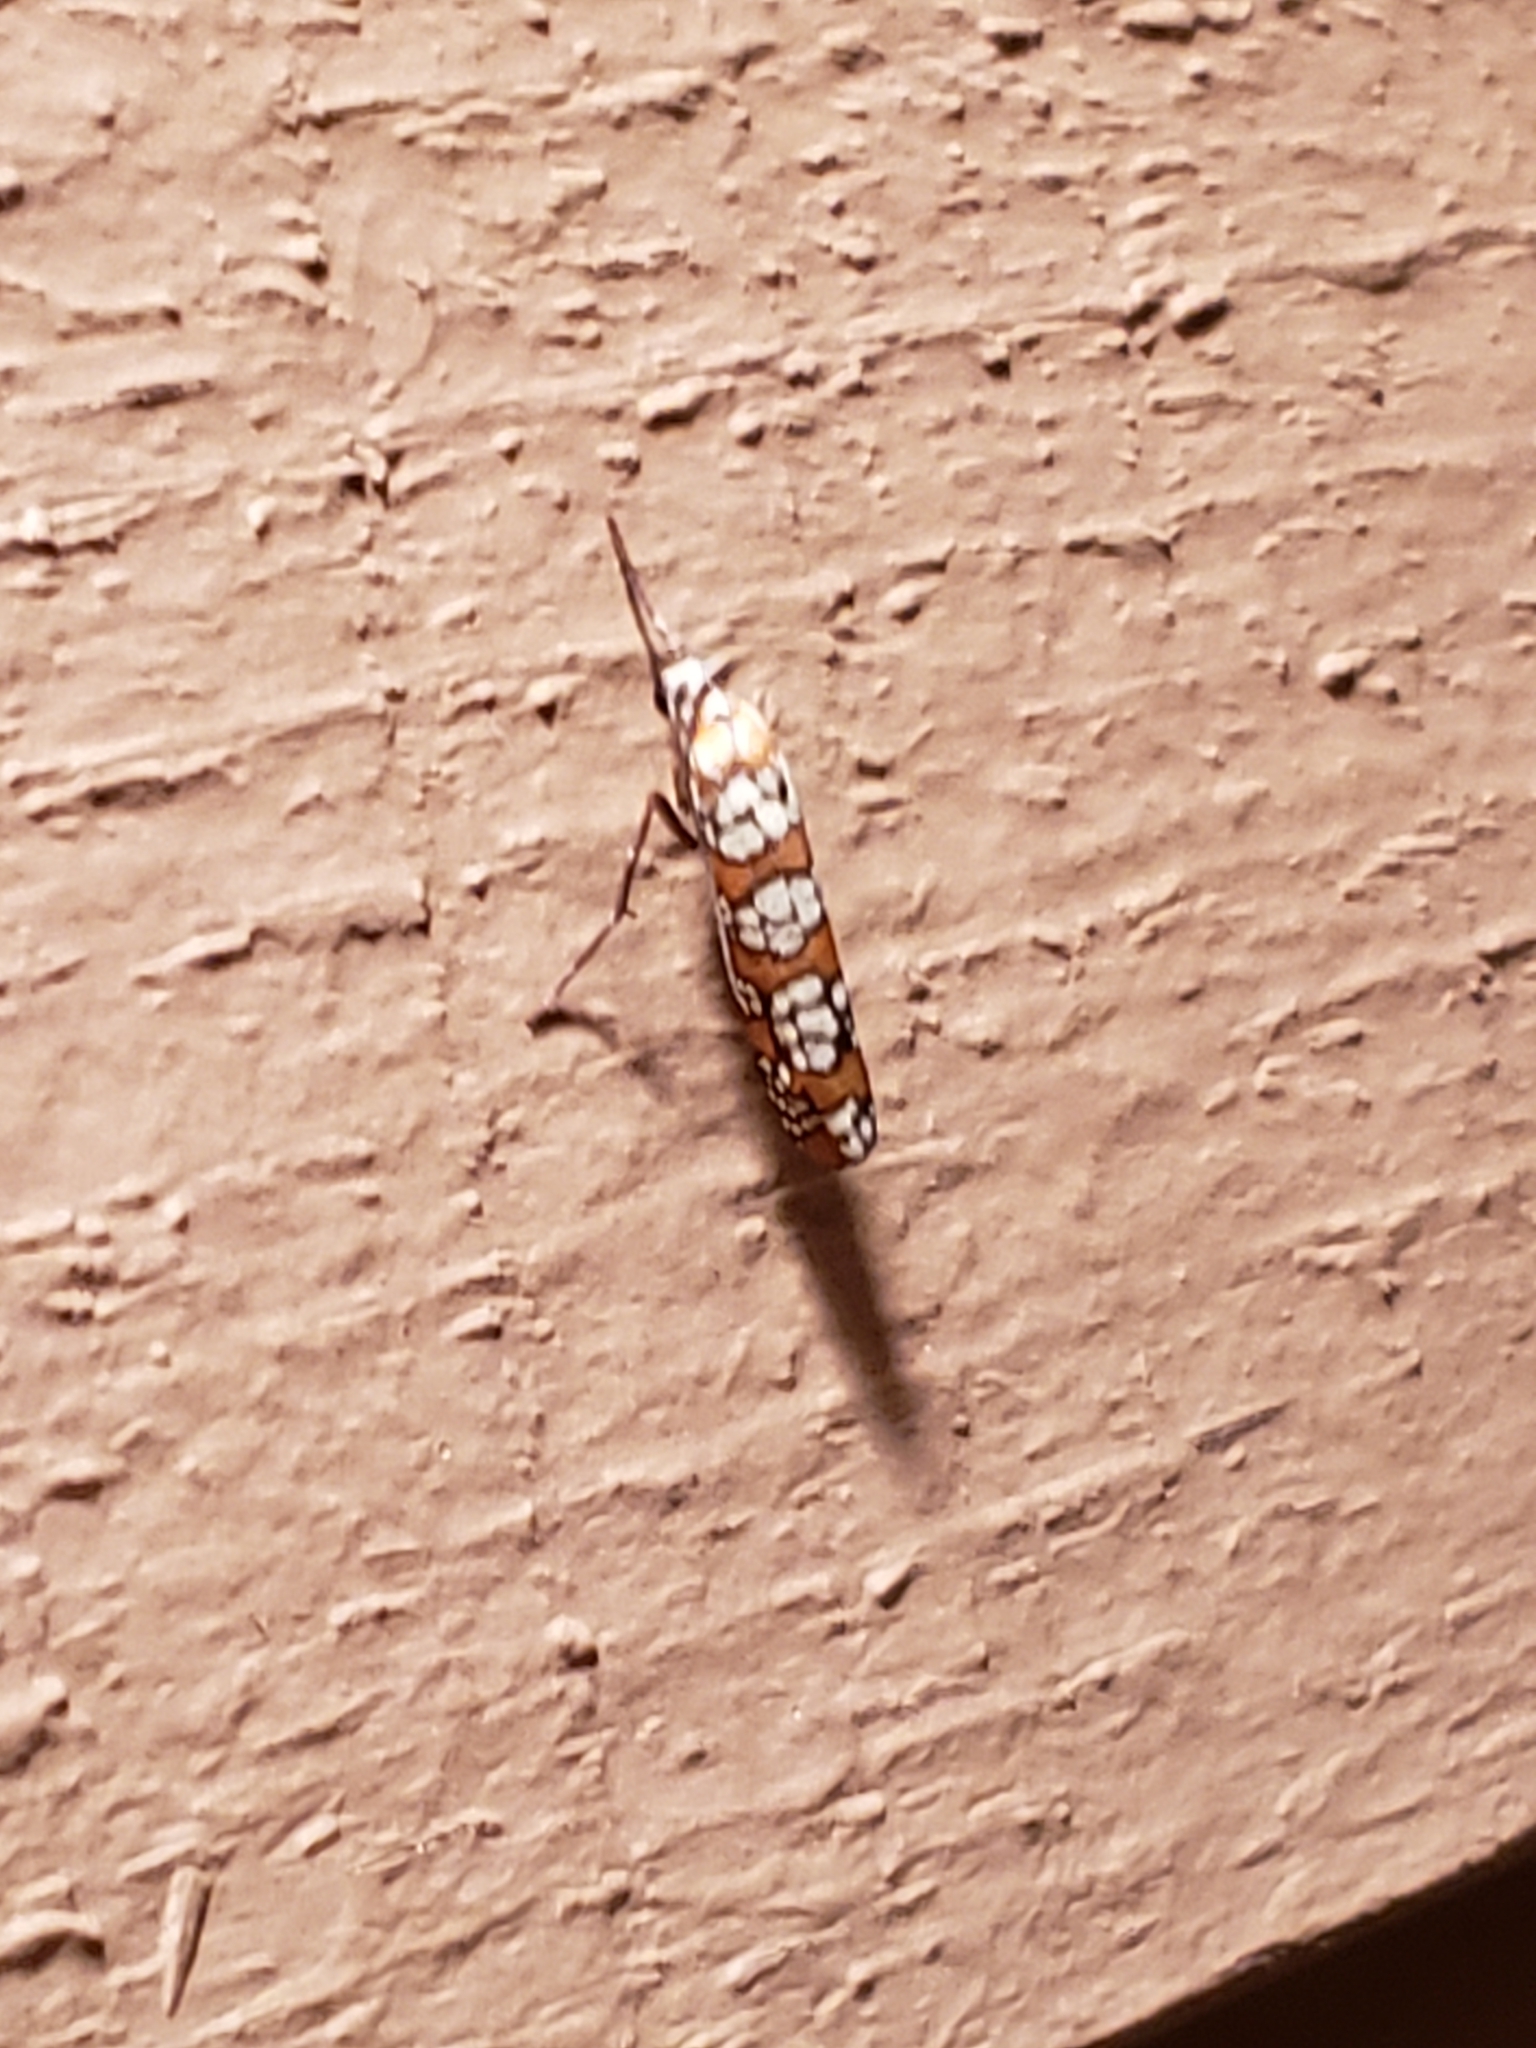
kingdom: Animalia
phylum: Arthropoda
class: Insecta
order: Lepidoptera
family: Attevidae
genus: Atteva
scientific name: Atteva punctella
